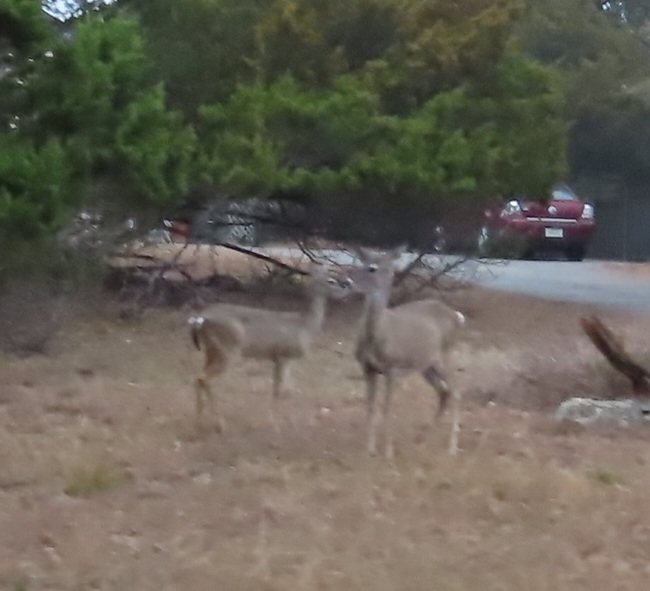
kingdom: Animalia
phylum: Chordata
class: Mammalia
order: Artiodactyla
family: Cervidae
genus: Odocoileus
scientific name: Odocoileus virginianus
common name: White-tailed deer
